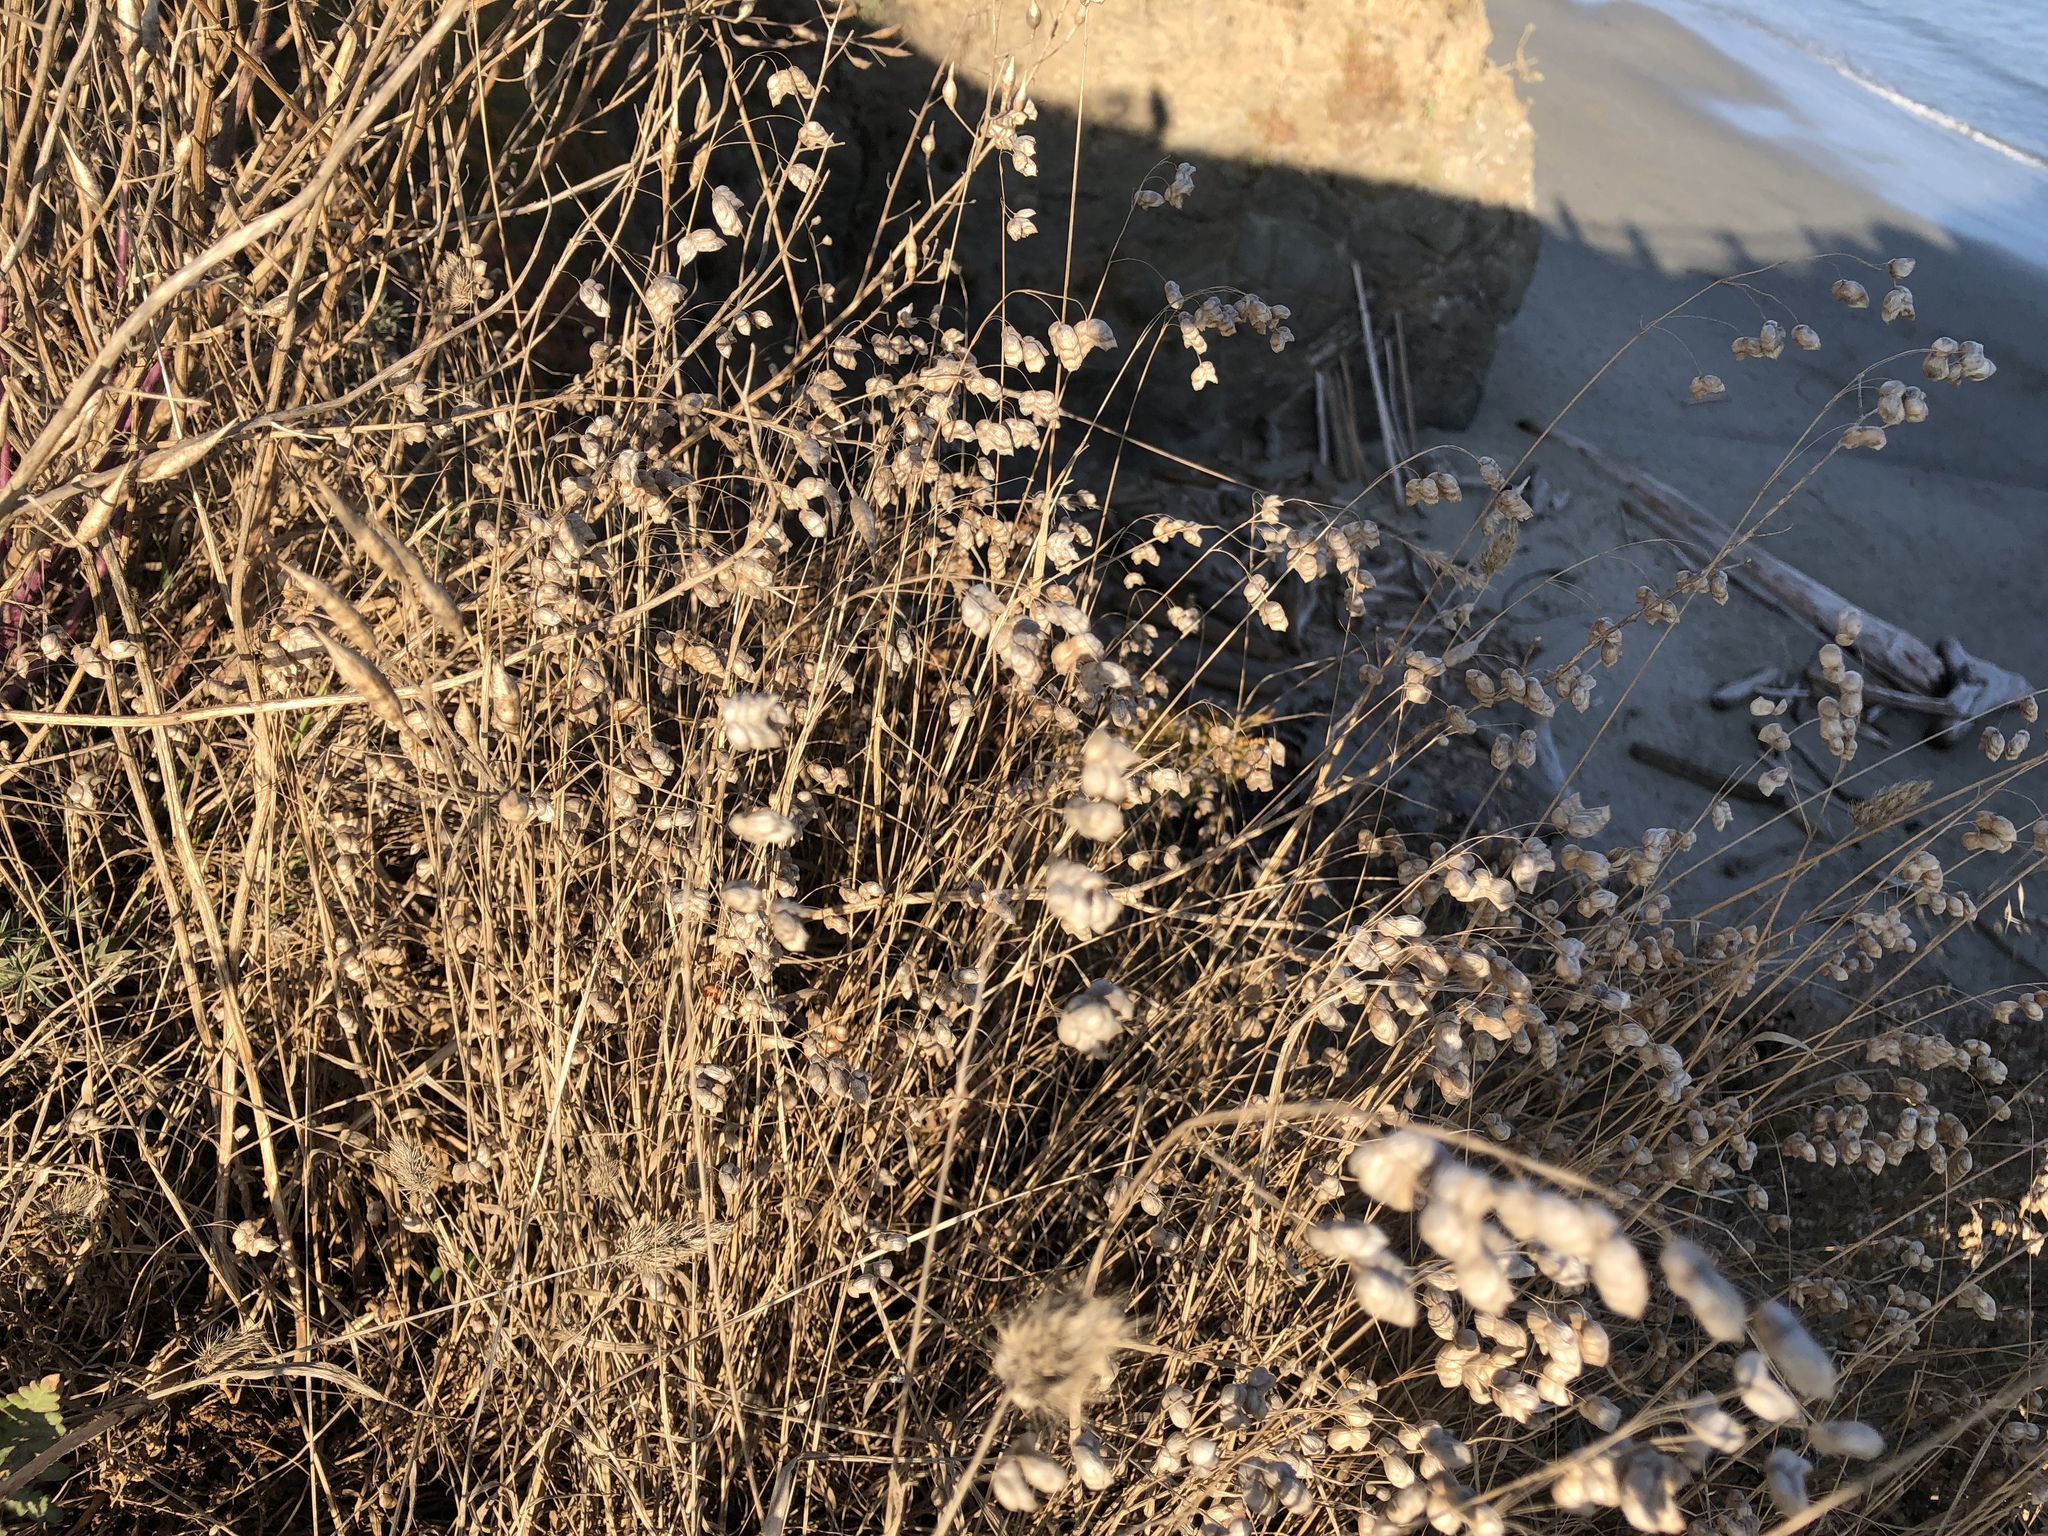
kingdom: Plantae
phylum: Tracheophyta
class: Liliopsida
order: Poales
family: Poaceae
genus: Briza
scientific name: Briza maxima
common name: Big quakinggrass
